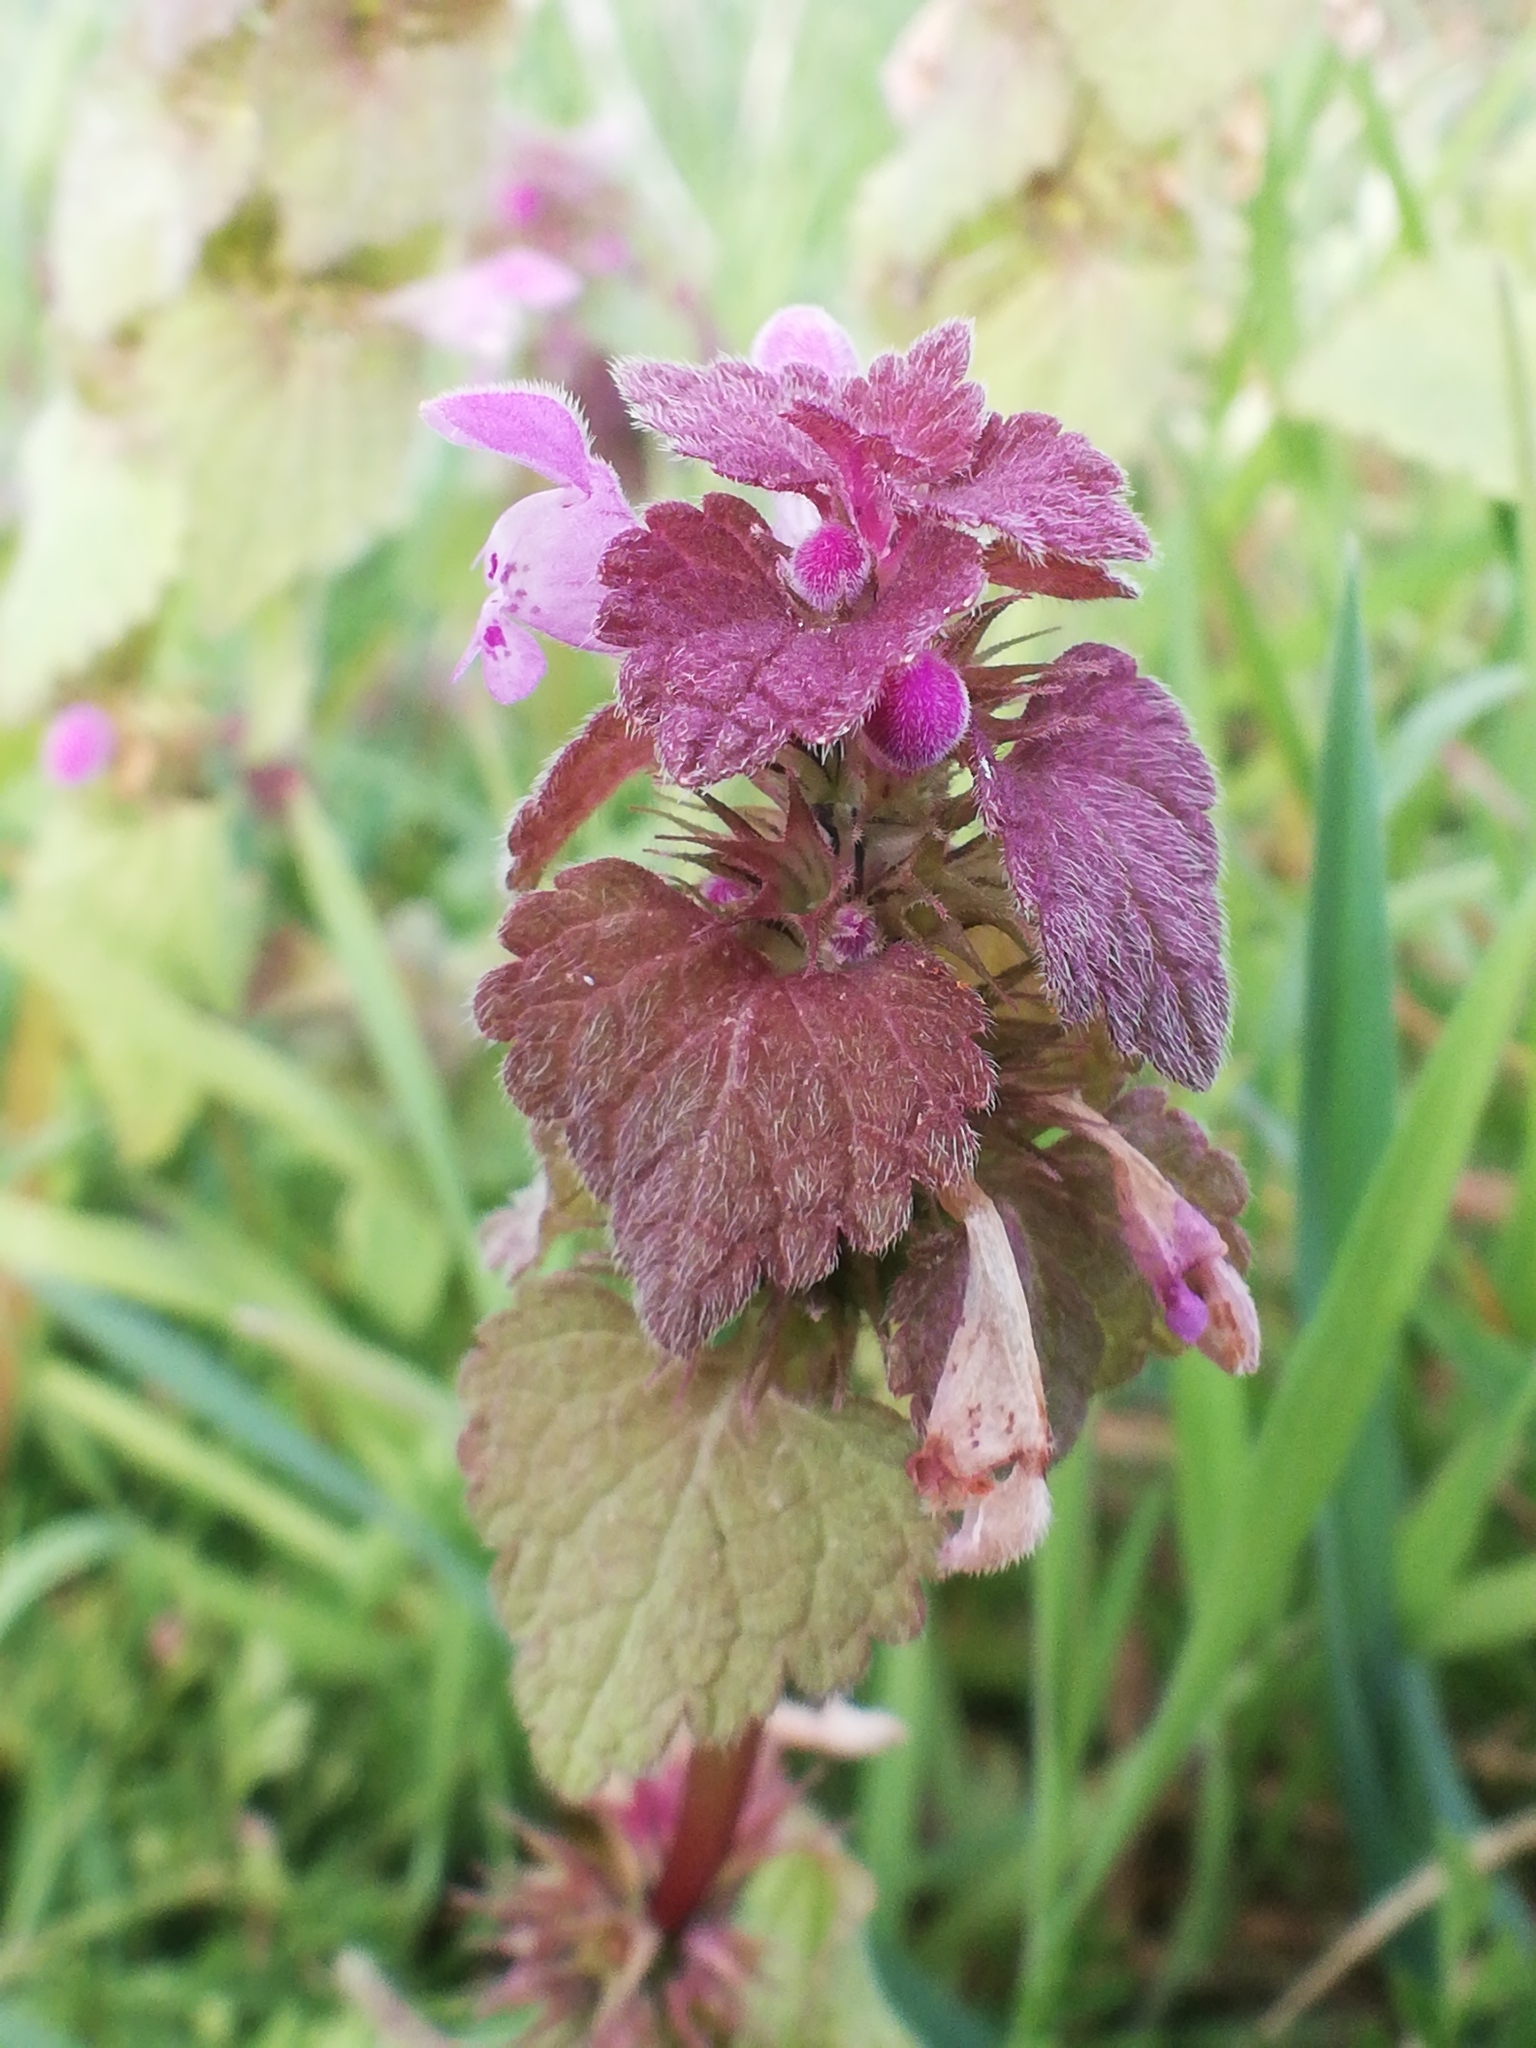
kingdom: Plantae
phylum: Tracheophyta
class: Magnoliopsida
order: Lamiales
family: Lamiaceae
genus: Lamium
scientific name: Lamium purpureum
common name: Red dead-nettle
